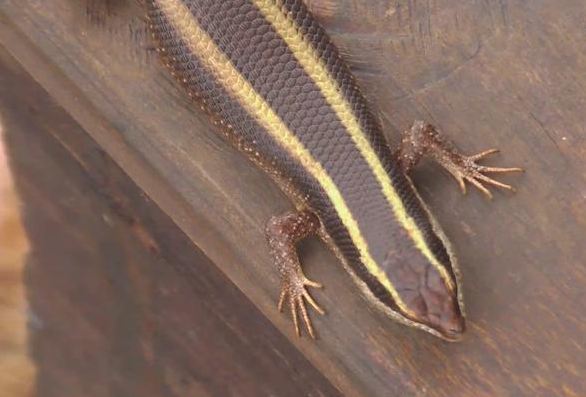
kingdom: Animalia
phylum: Chordata
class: Squamata
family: Scincidae
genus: Trachylepis
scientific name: Trachylepis striata
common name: African striped mabuya
